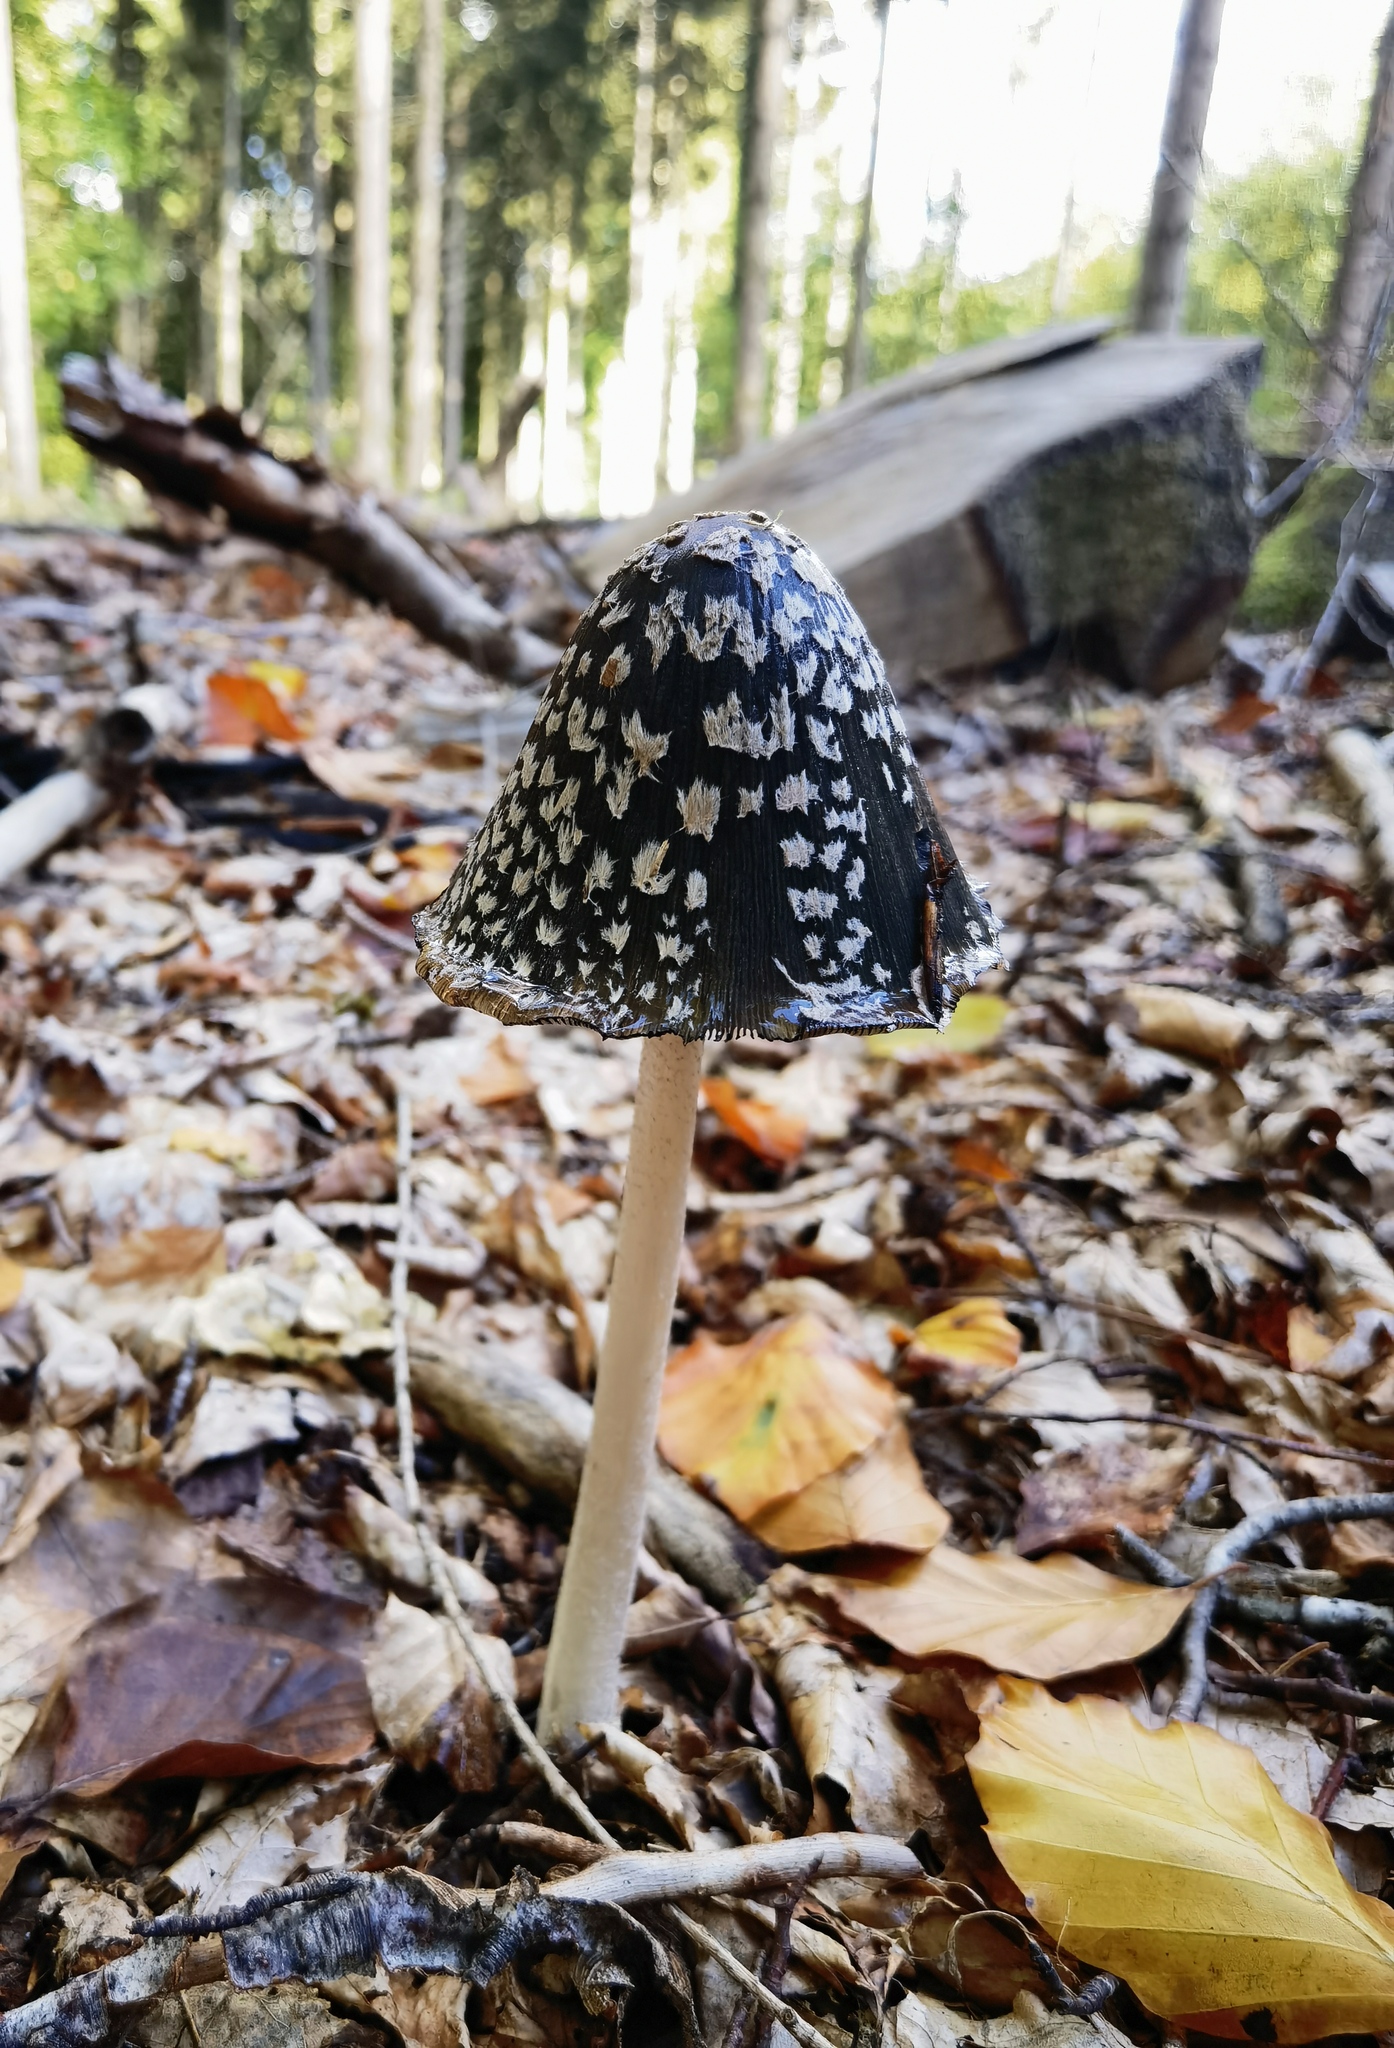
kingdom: Fungi
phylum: Basidiomycota
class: Agaricomycetes
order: Agaricales
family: Psathyrellaceae
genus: Coprinopsis
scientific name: Coprinopsis picacea
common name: Magpie inkcap
